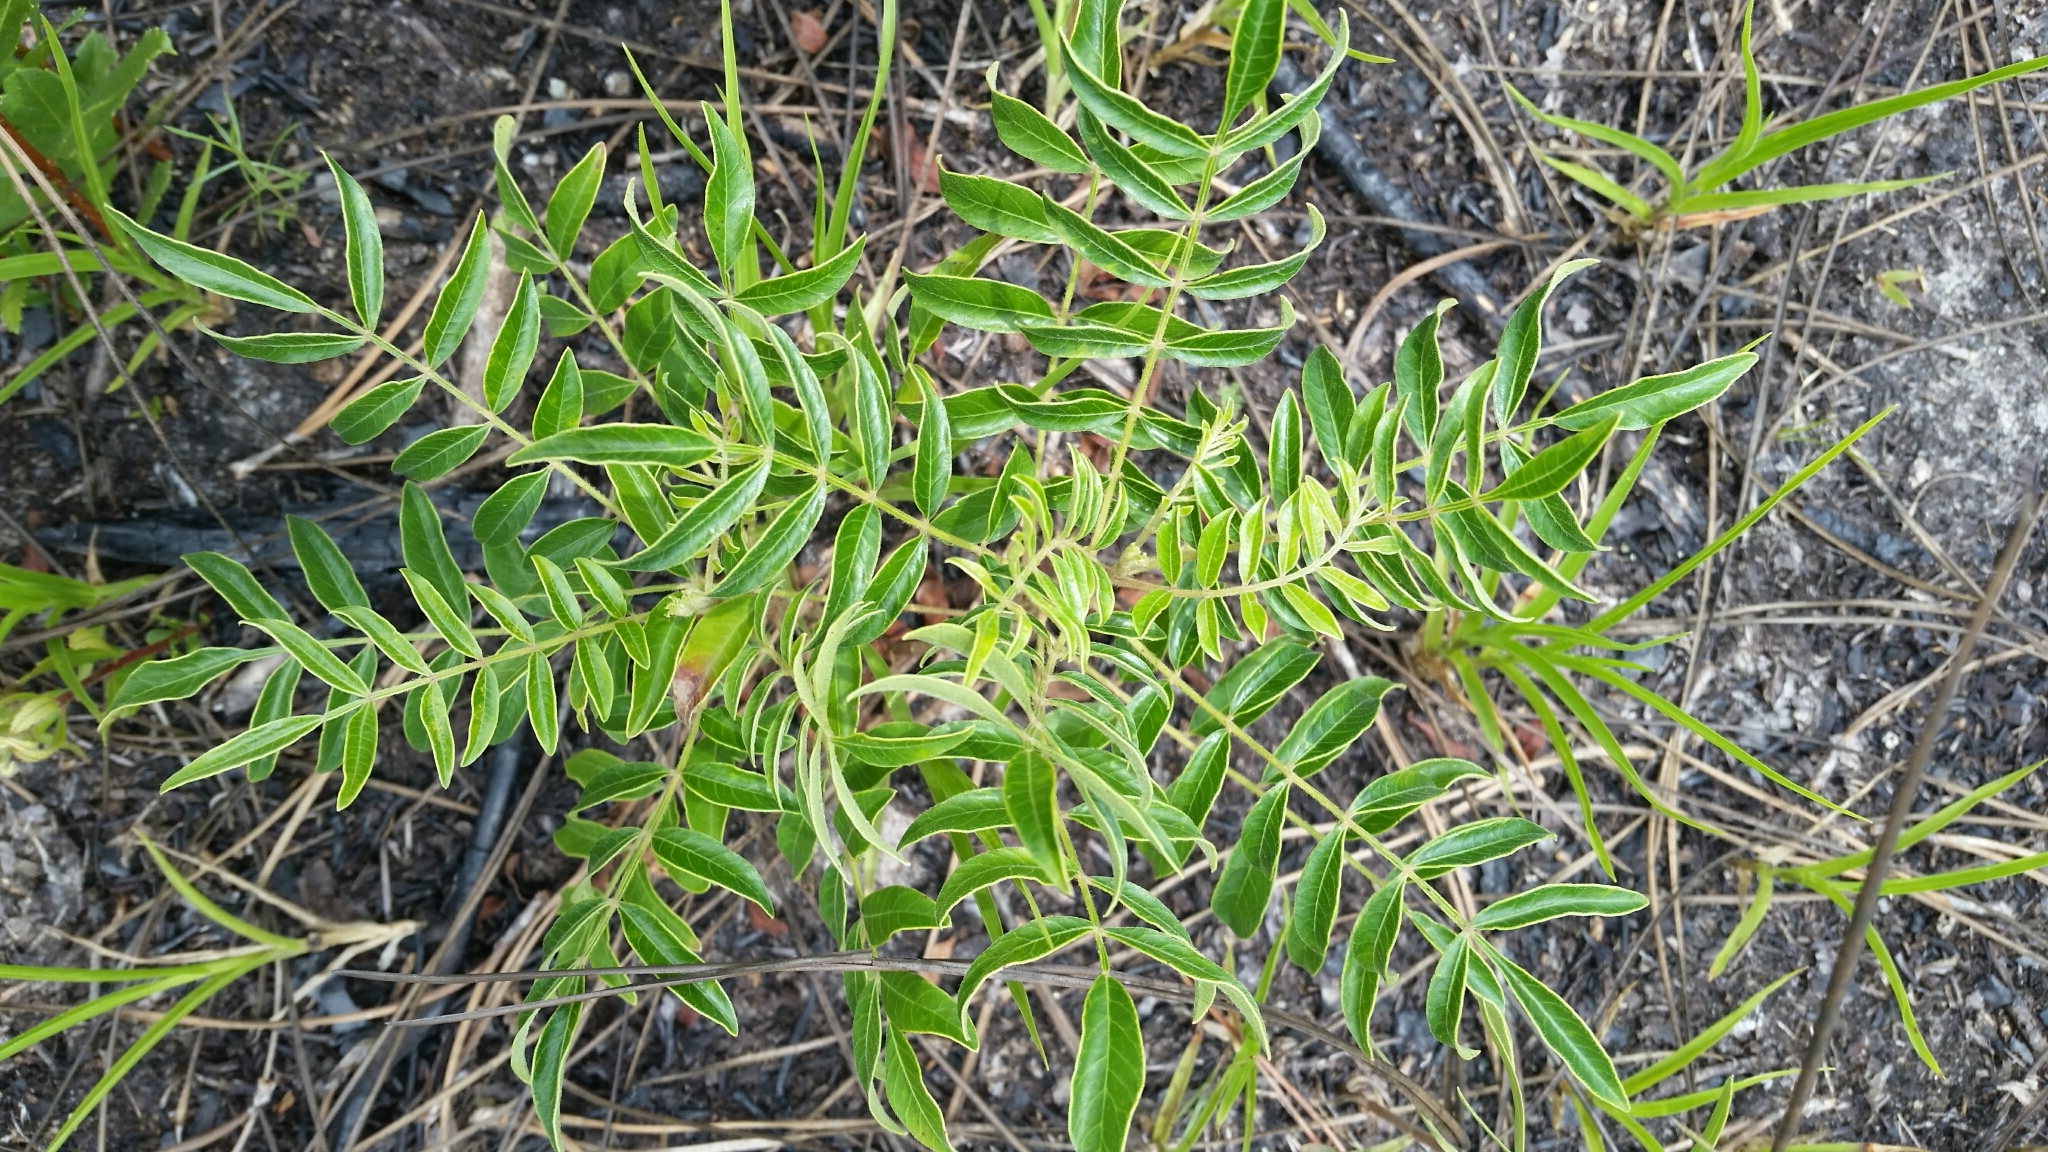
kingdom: Plantae
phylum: Tracheophyta
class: Magnoliopsida
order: Sapindales
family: Anacardiaceae
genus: Rhus
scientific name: Rhus copallina
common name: Shining sumac
